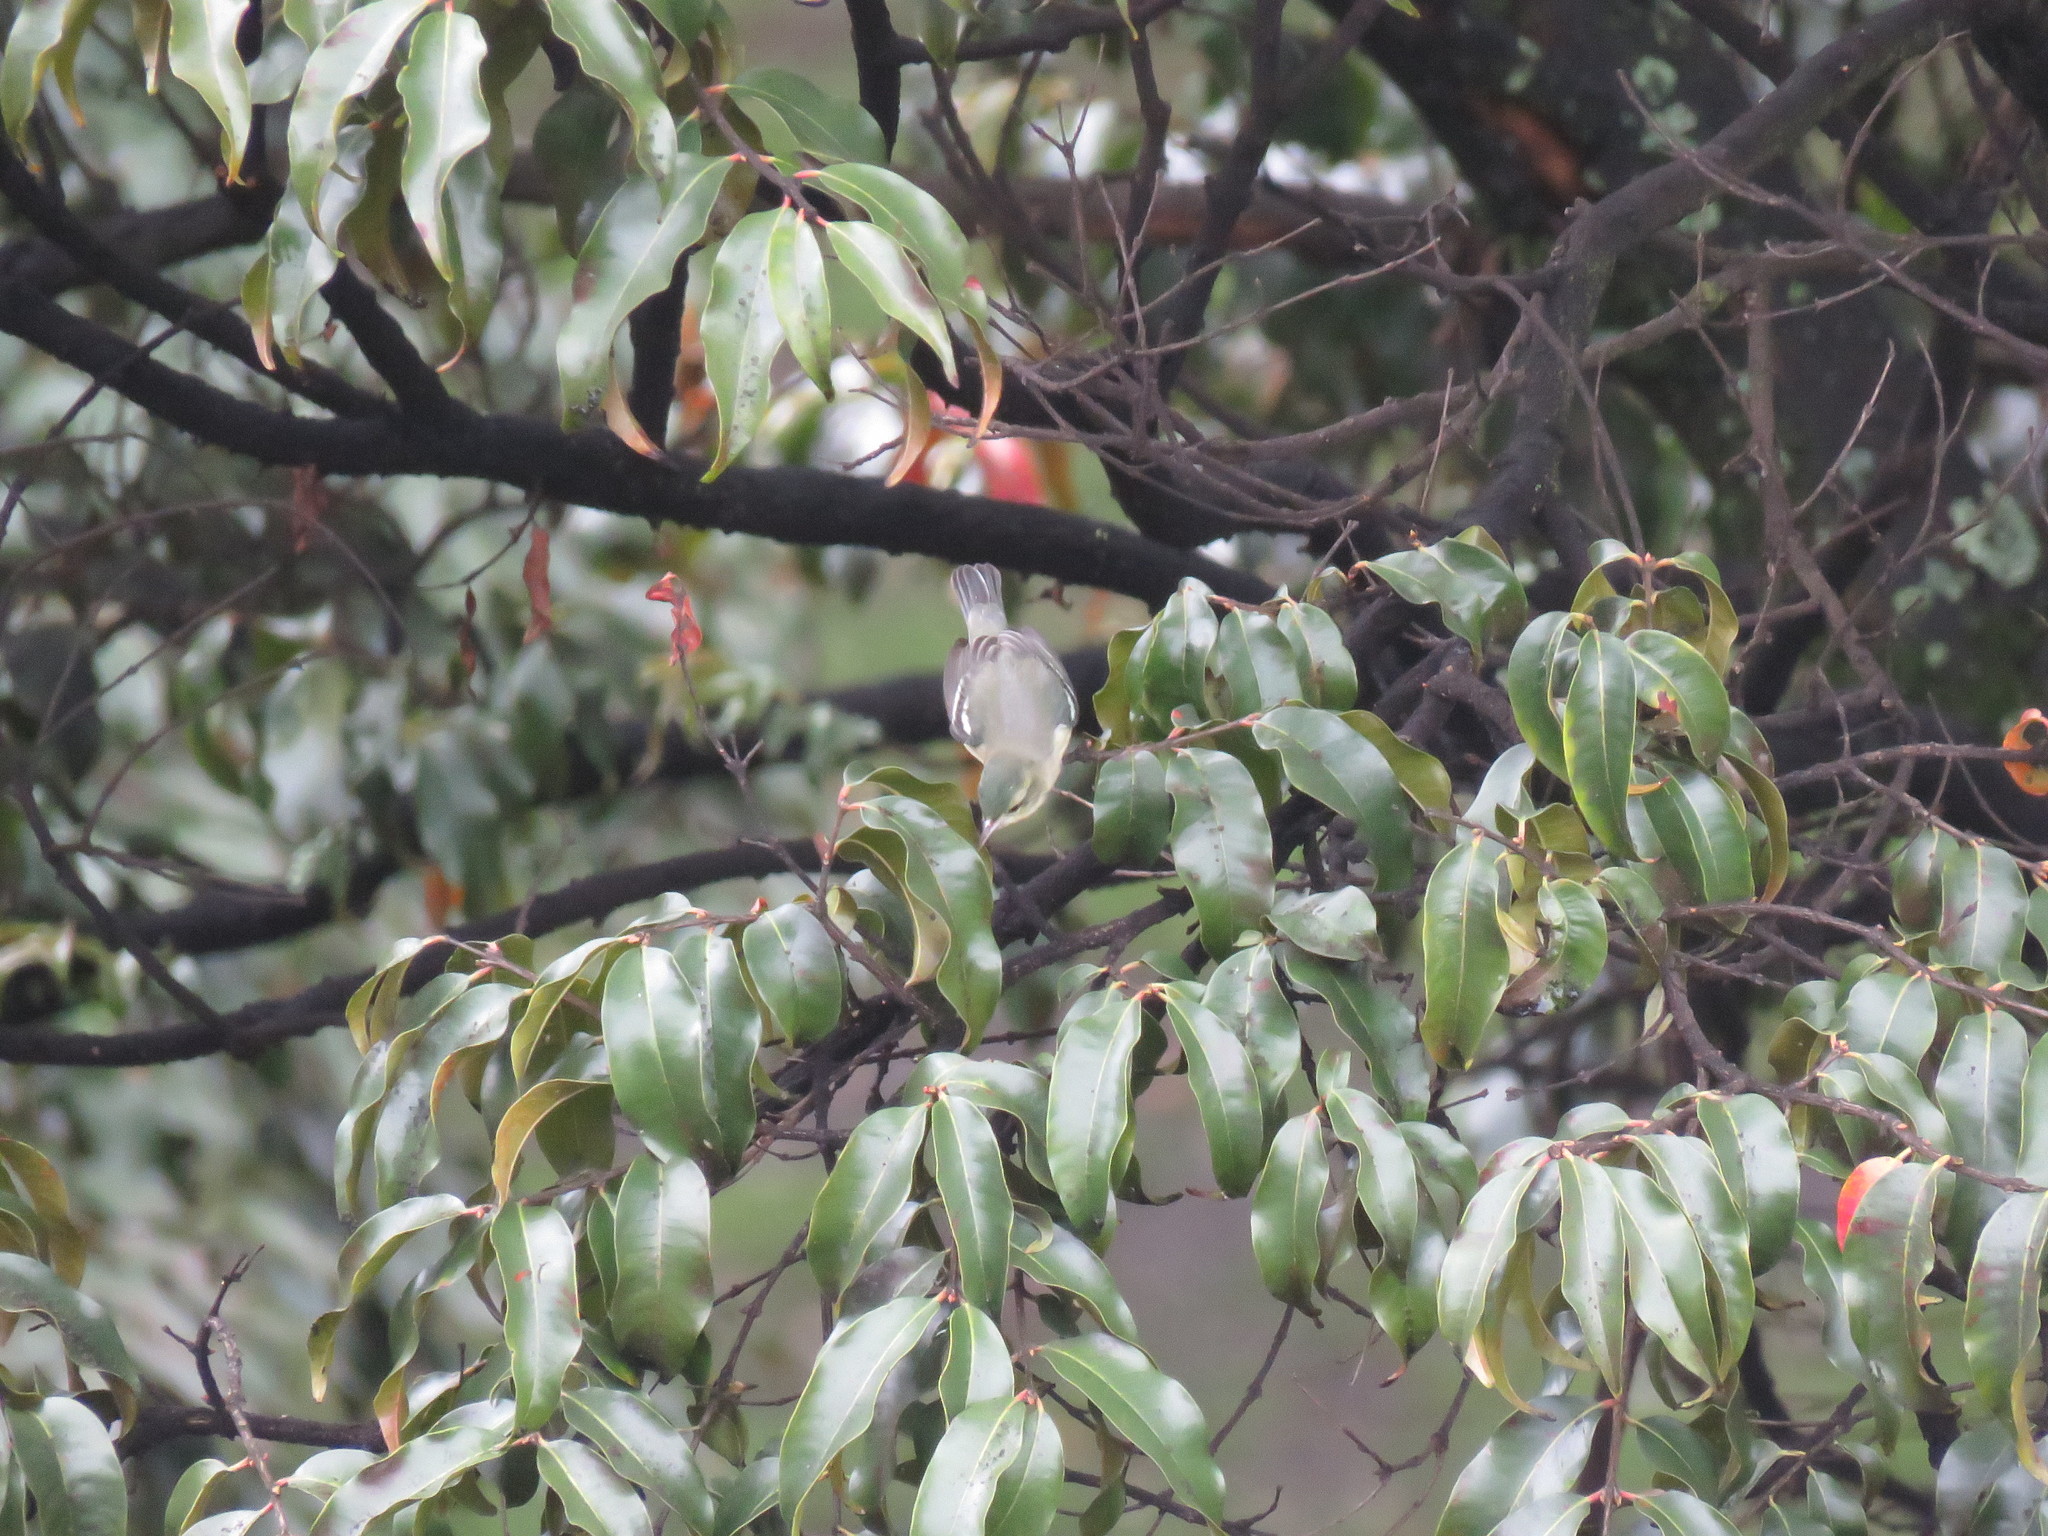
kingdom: Animalia
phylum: Chordata
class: Aves
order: Passeriformes
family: Parulidae
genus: Setophaga
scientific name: Setophaga cerulea
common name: Cerulean warbler
